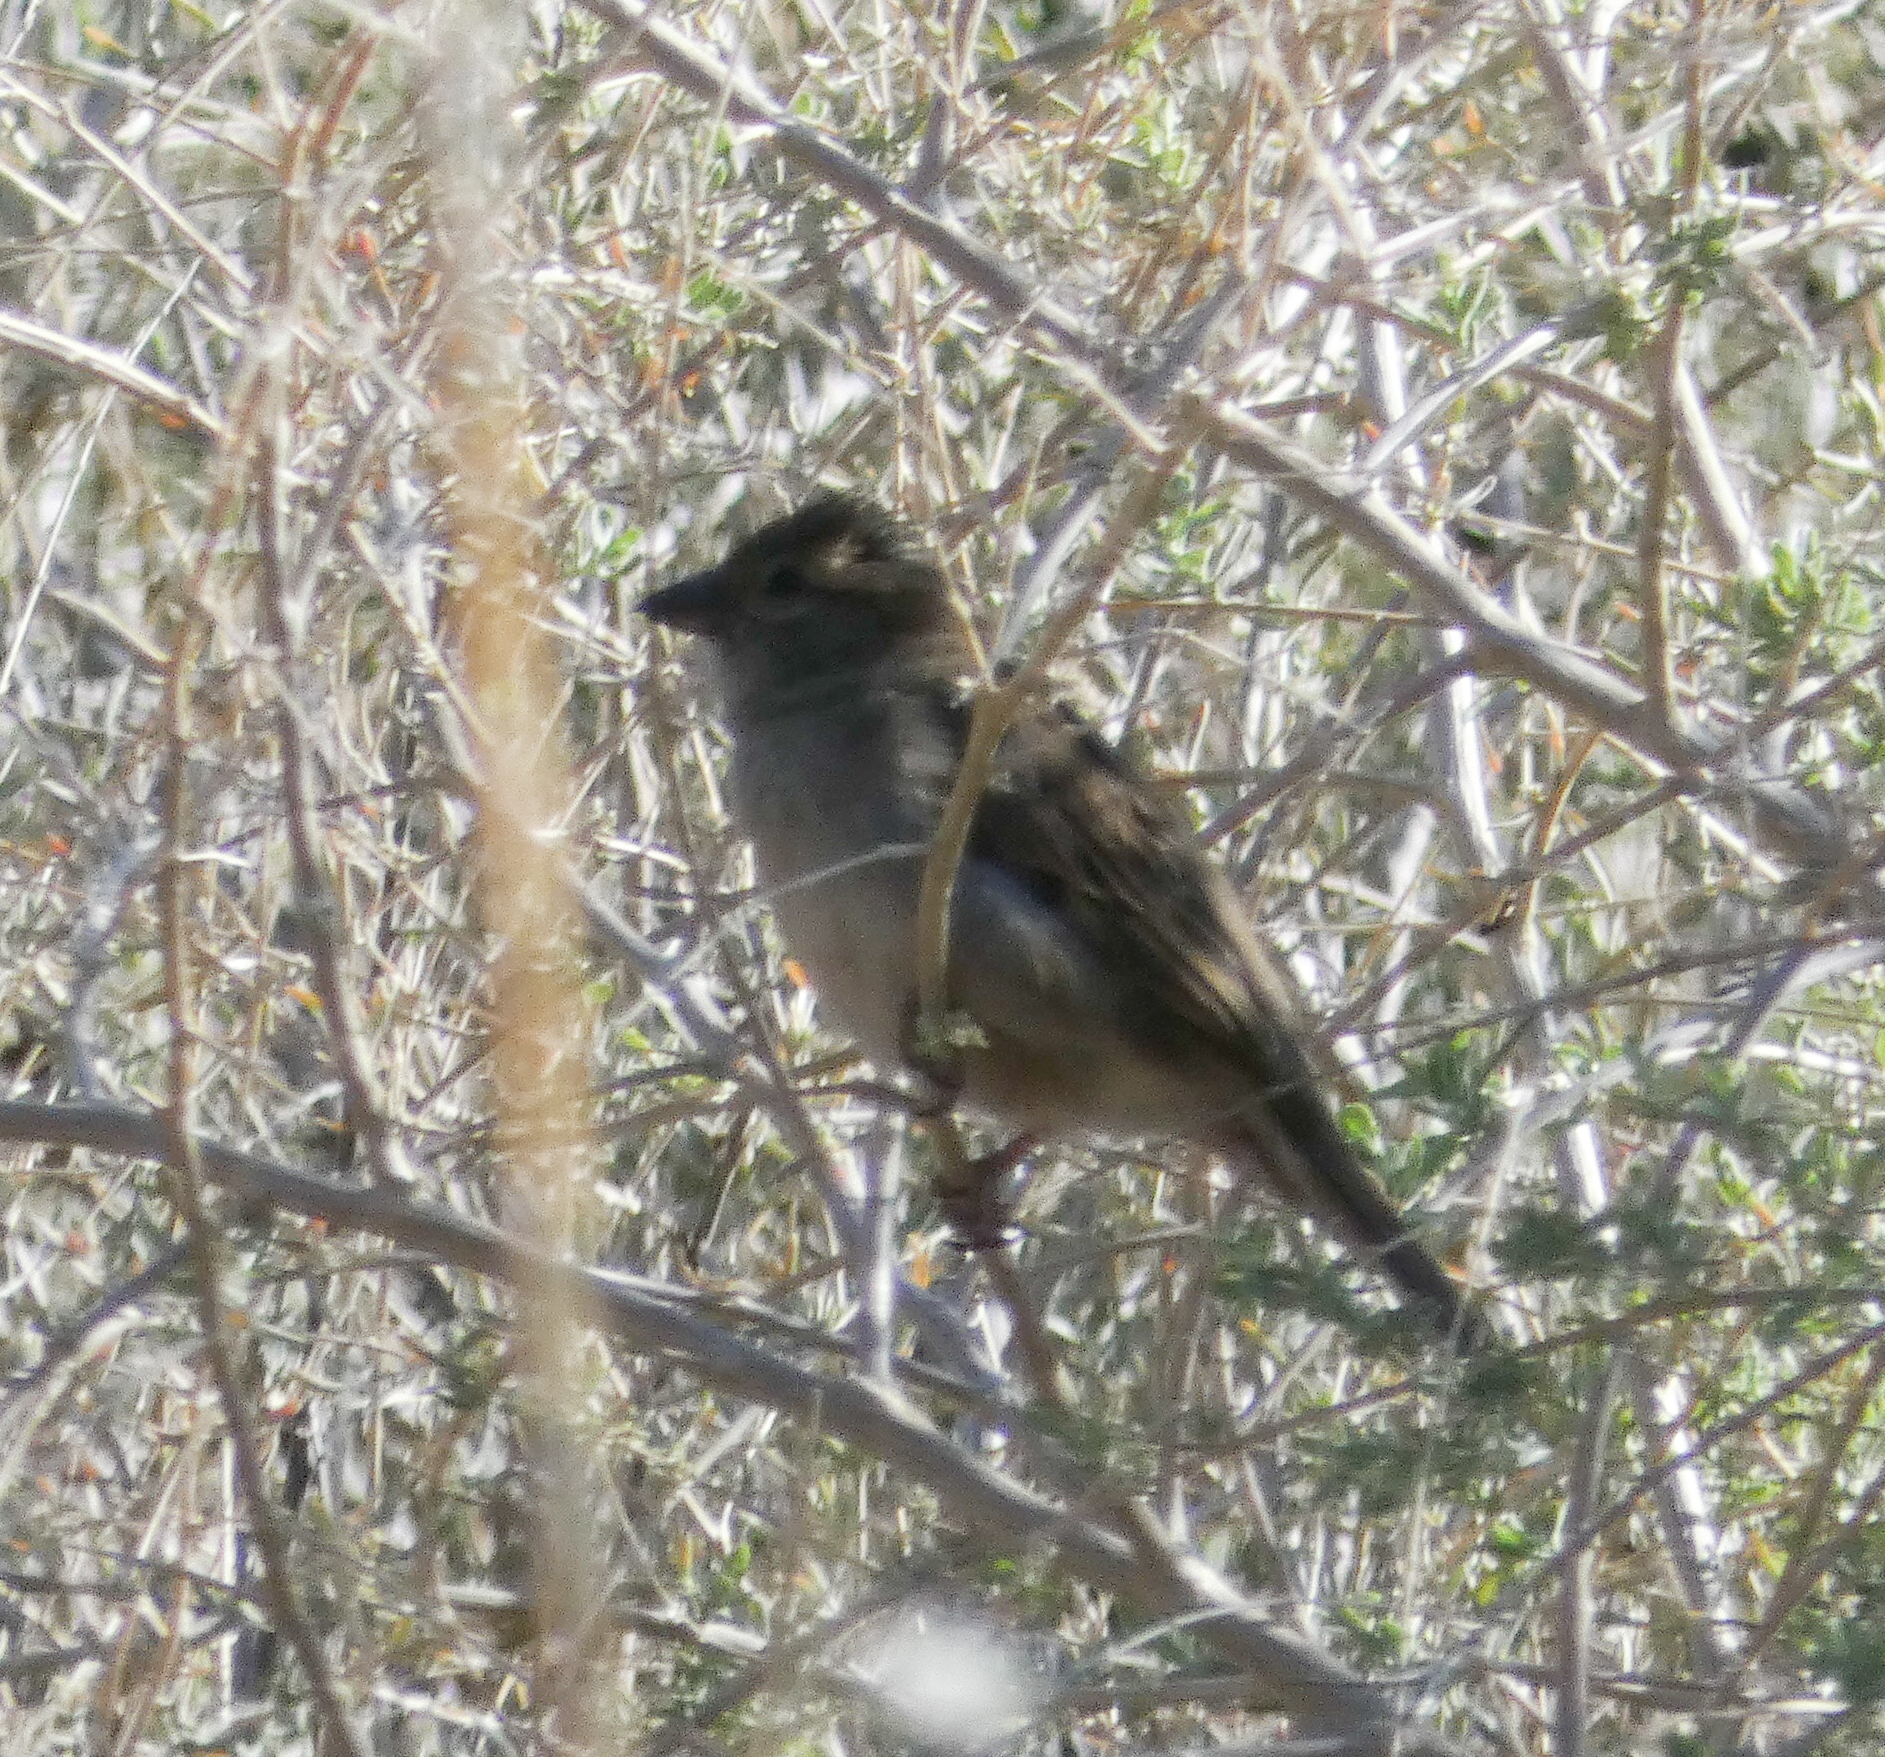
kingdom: Animalia
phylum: Chordata
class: Aves
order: Passeriformes
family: Passeridae
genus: Passer
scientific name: Passer domesticus
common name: House sparrow
